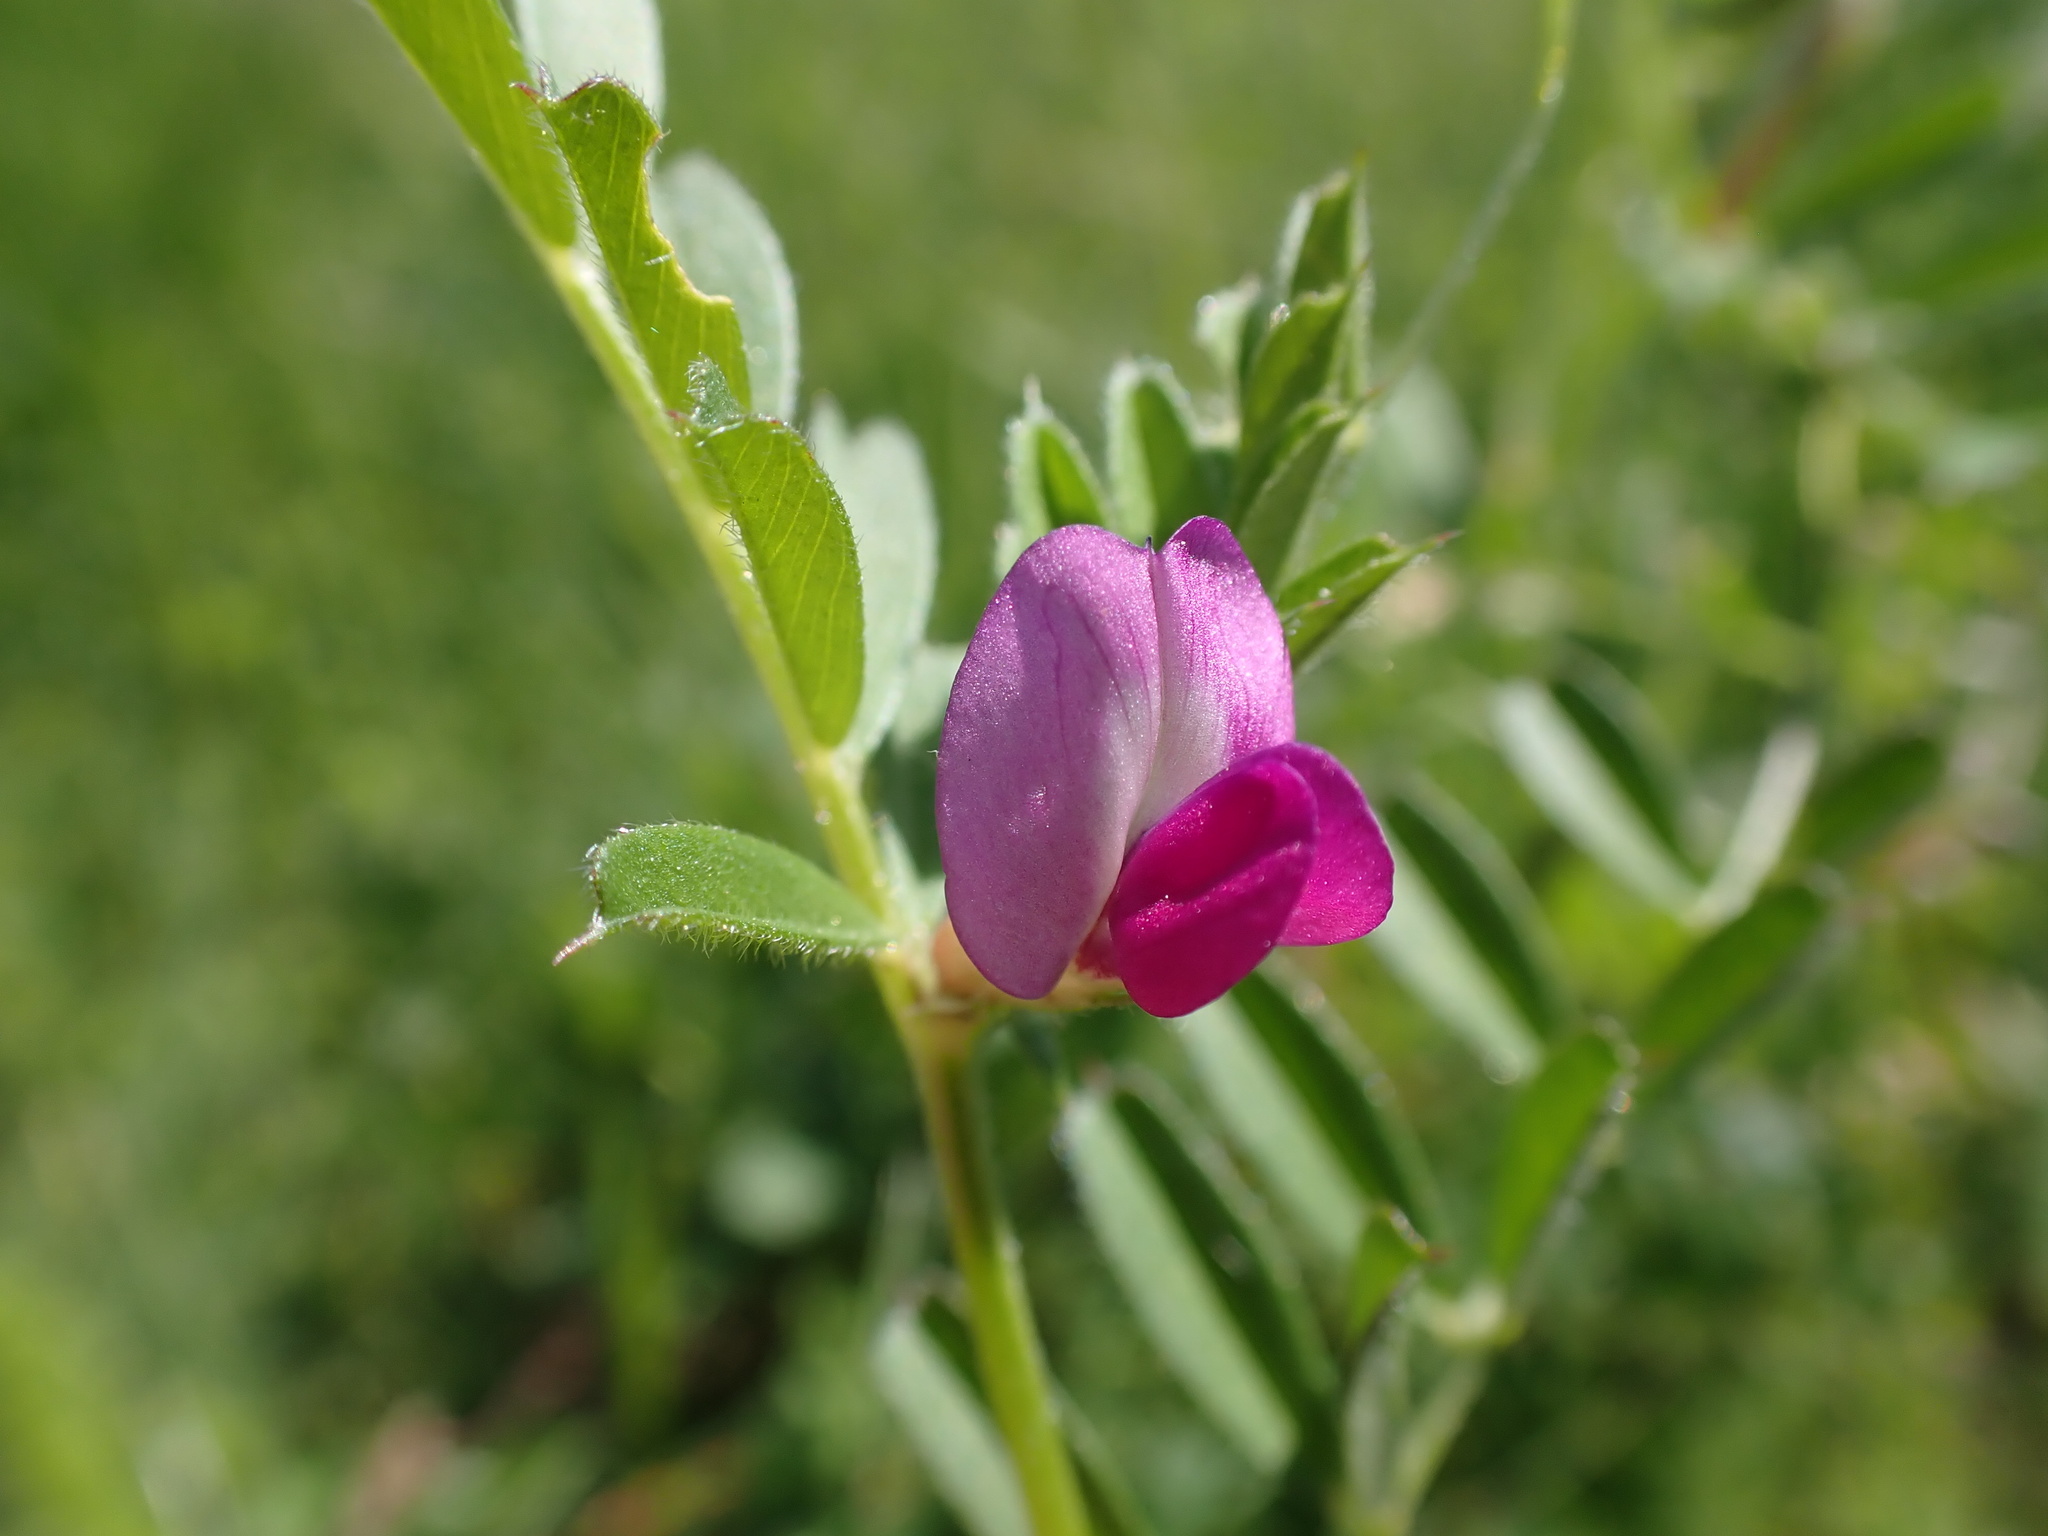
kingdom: Plantae
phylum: Tracheophyta
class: Magnoliopsida
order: Fabales
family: Fabaceae
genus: Vicia
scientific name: Vicia sativa
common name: Garden vetch
